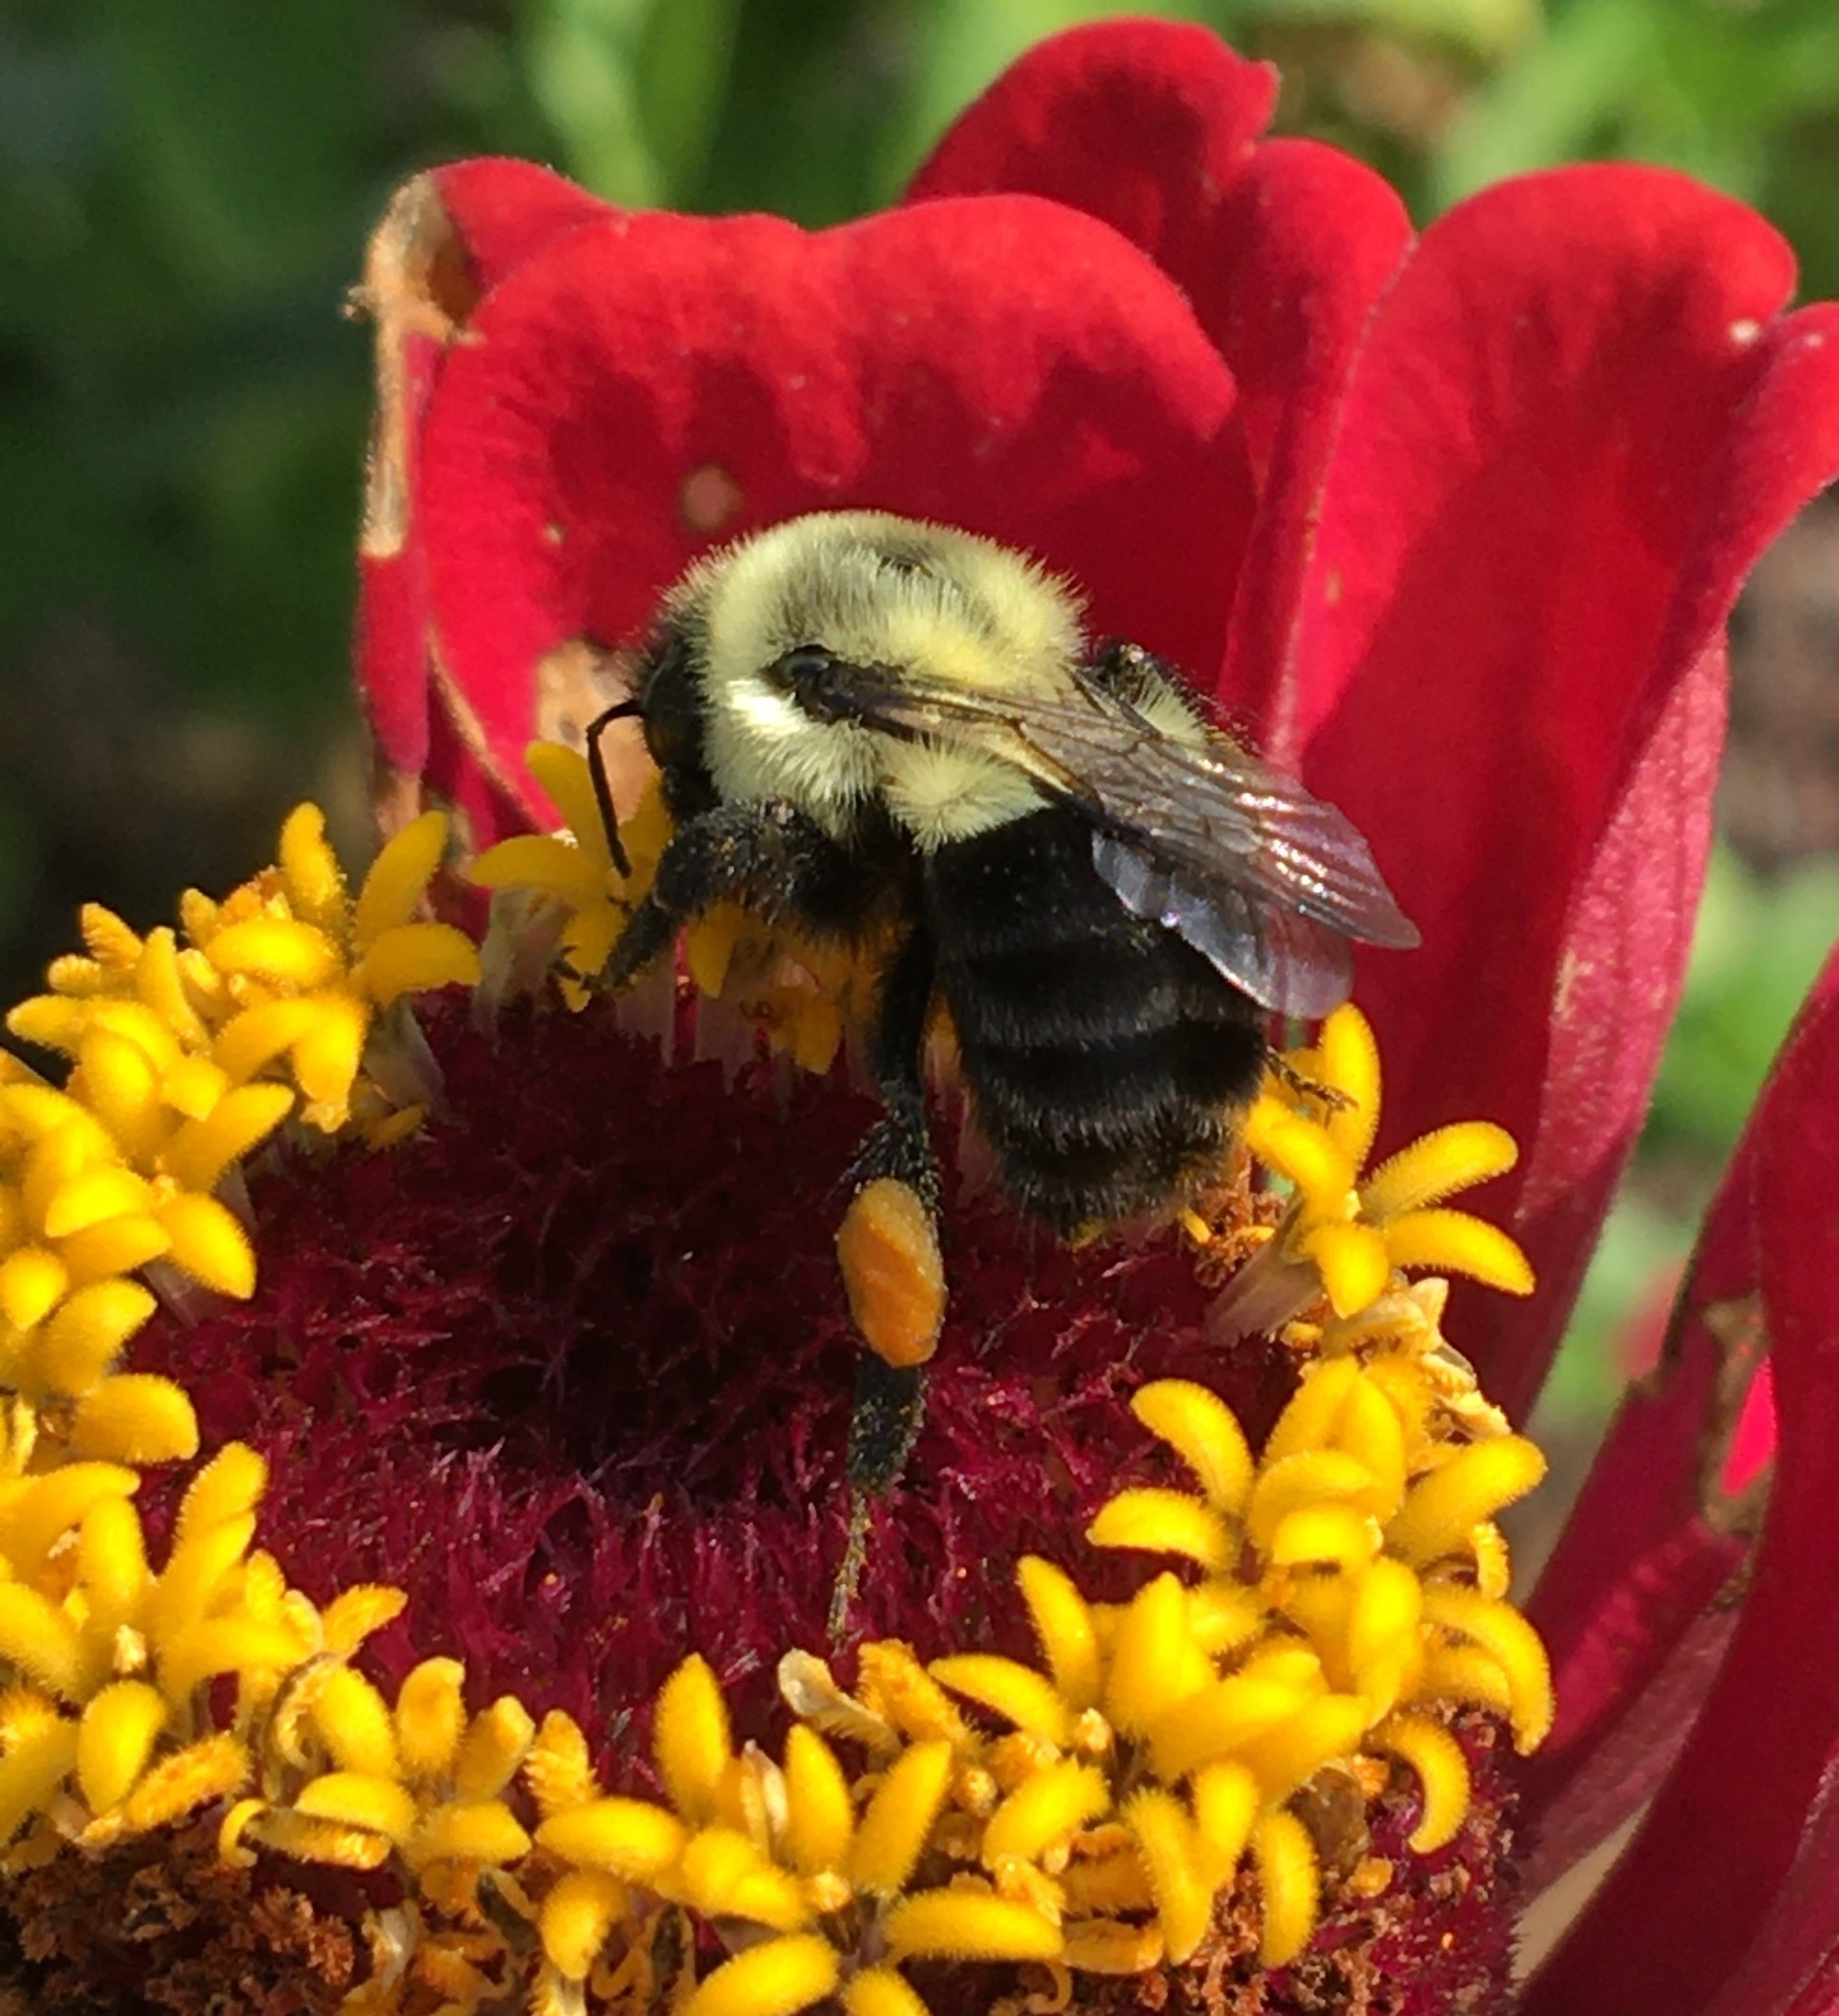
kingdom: Animalia
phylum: Arthropoda
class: Insecta
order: Hymenoptera
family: Apidae
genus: Bombus
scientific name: Bombus impatiens
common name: Common eastern bumble bee
